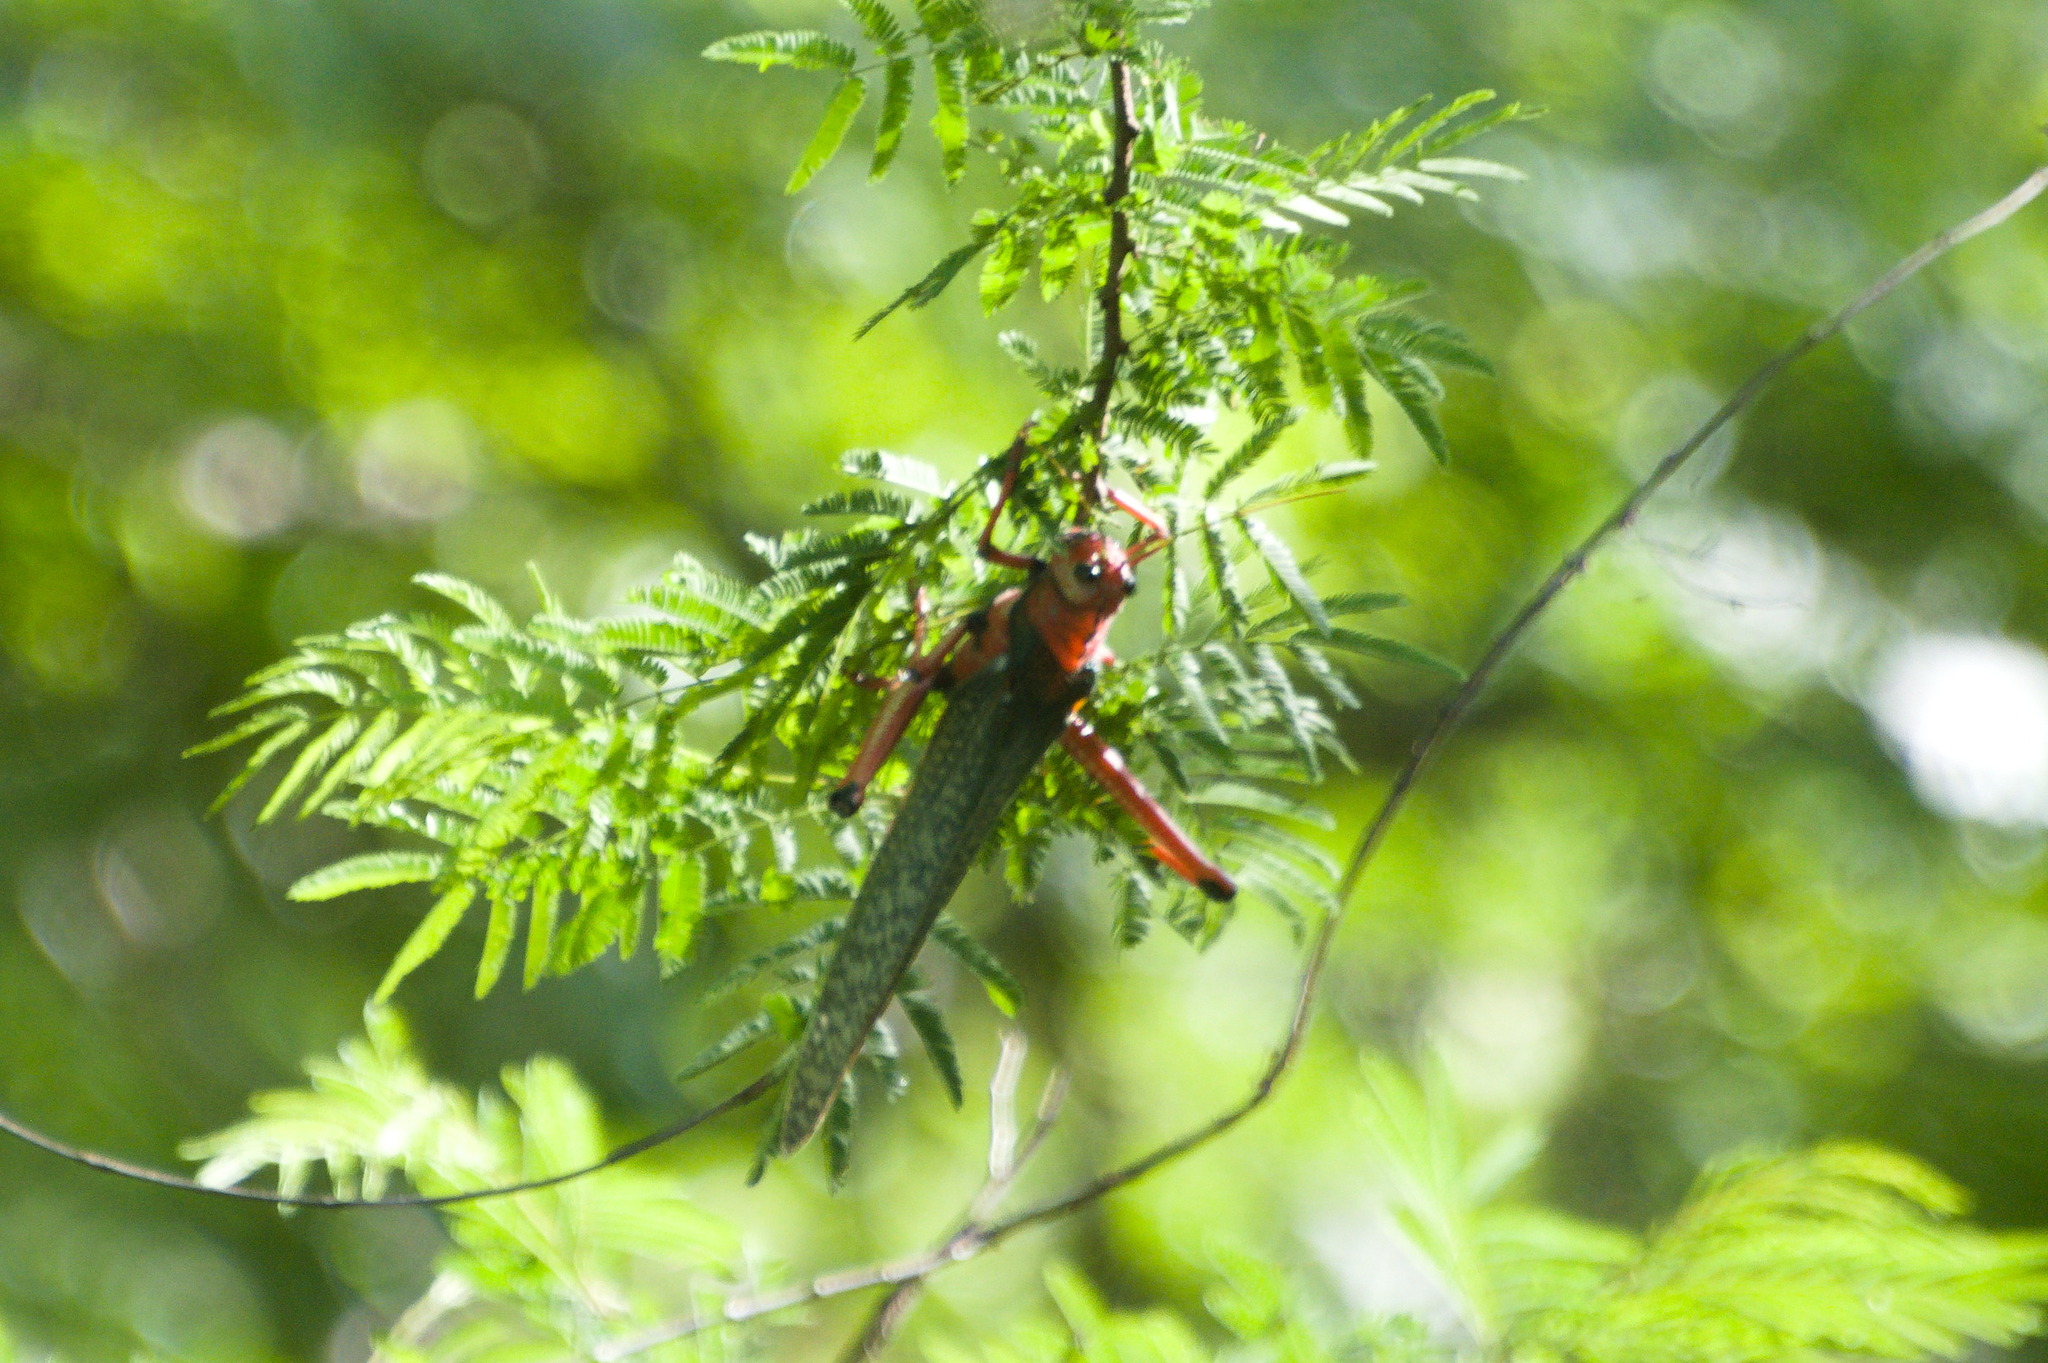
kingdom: Animalia
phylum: Arthropoda
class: Insecta
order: Orthoptera
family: Romaleidae
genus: Tropidacris
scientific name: Tropidacris collaris
